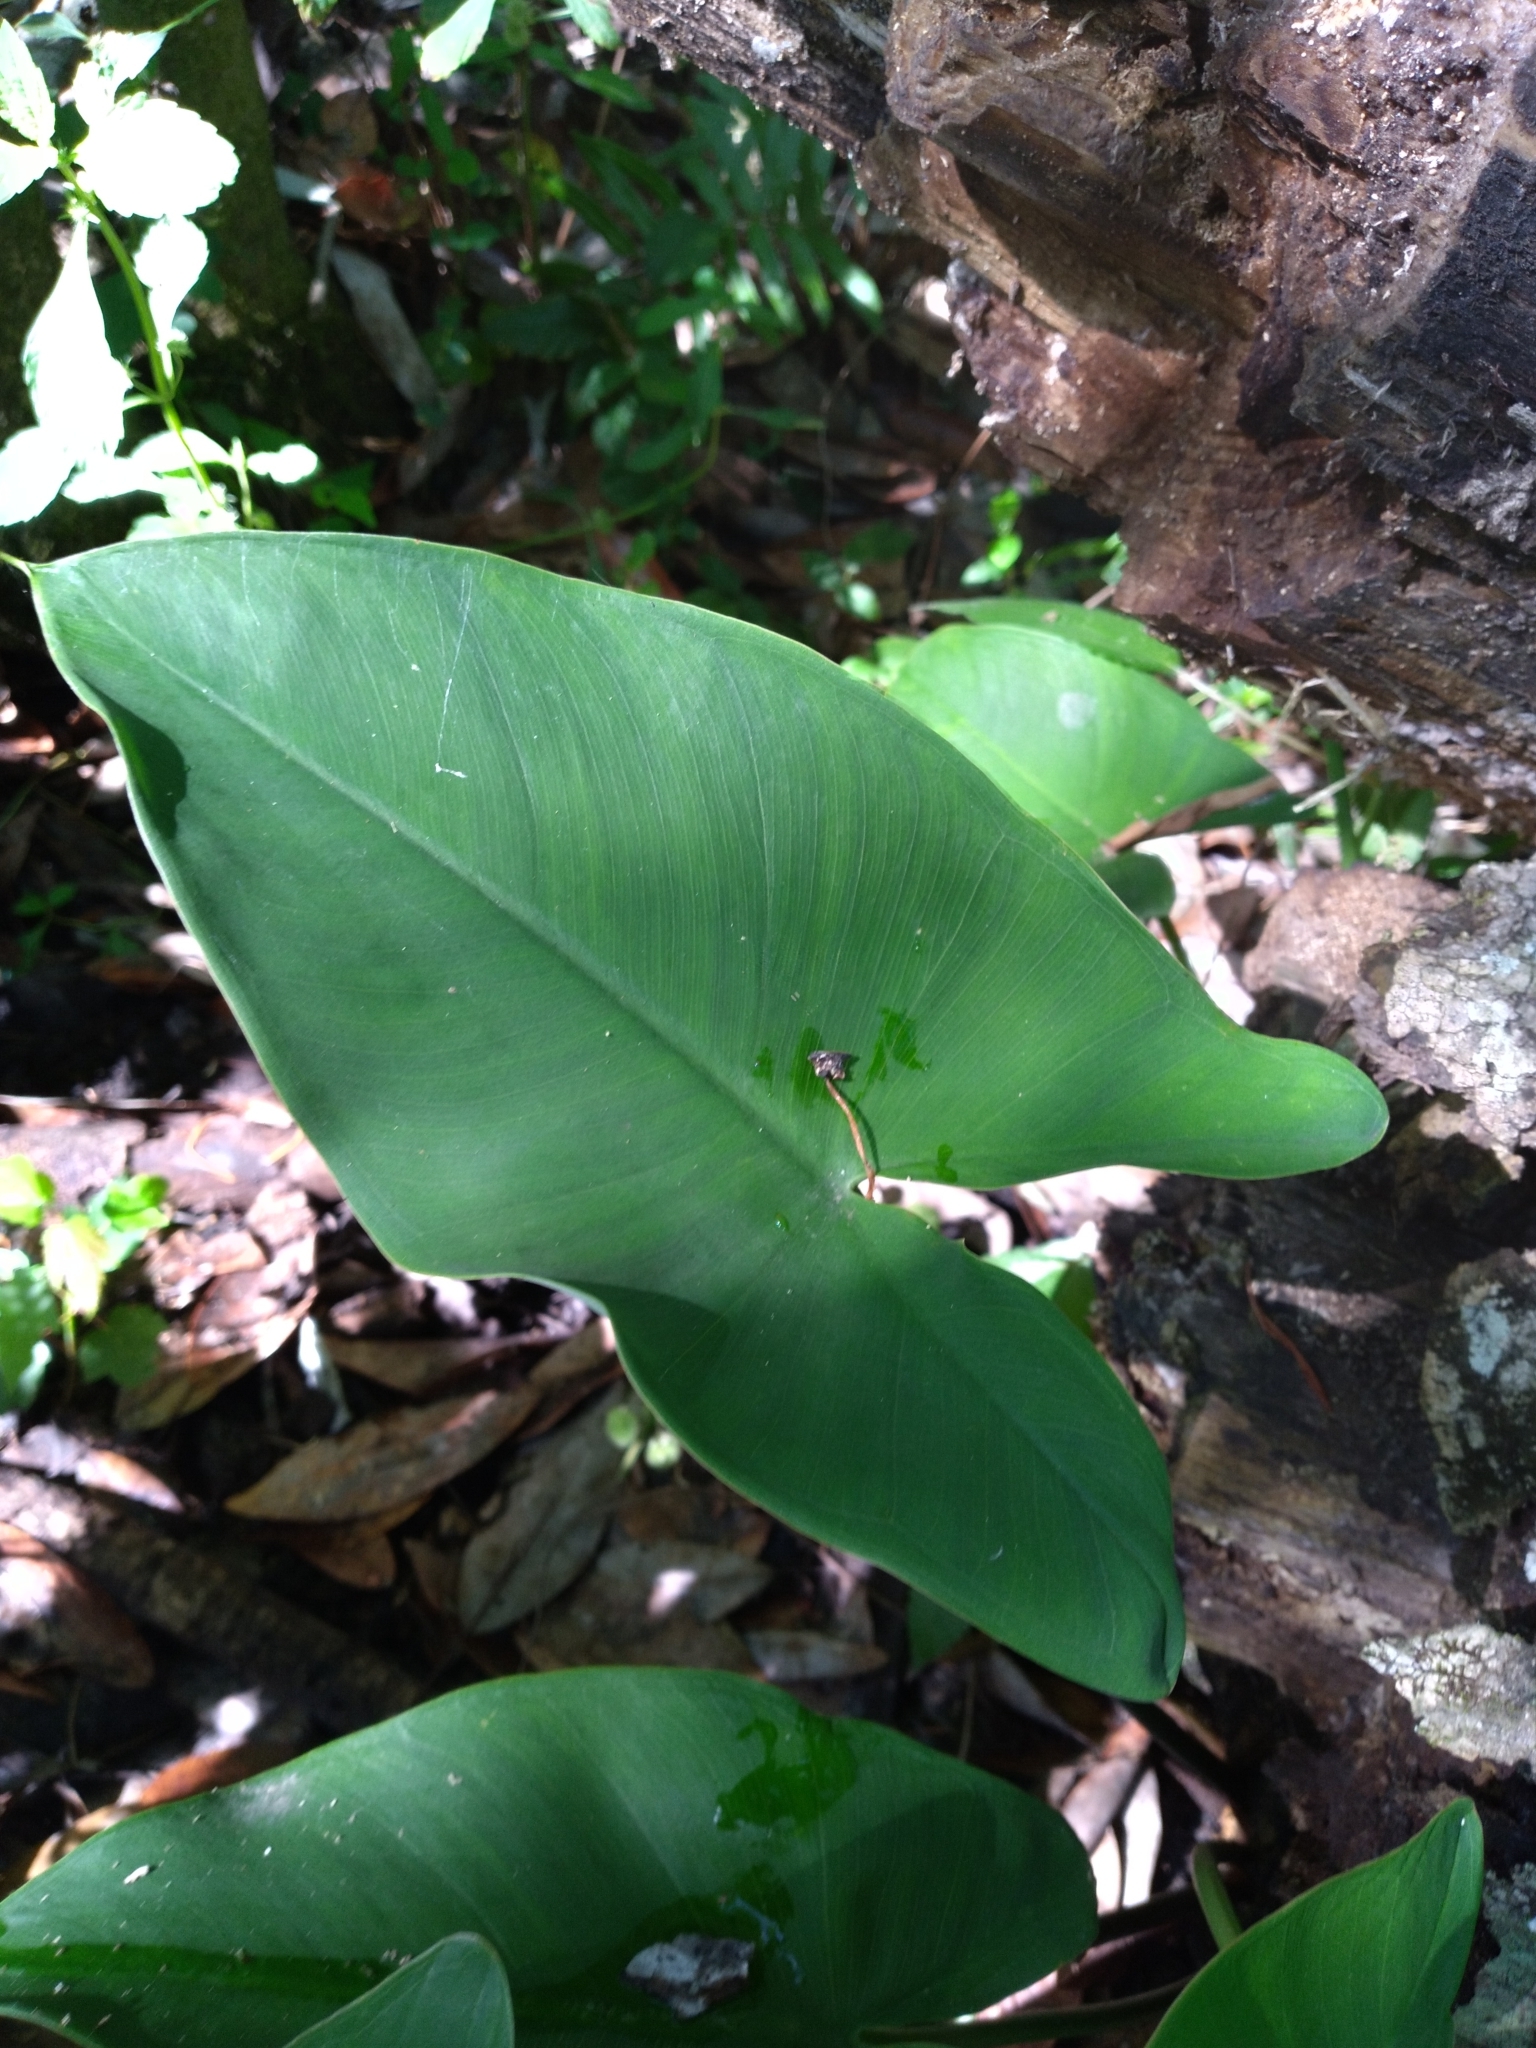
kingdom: Plantae
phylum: Tracheophyta
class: Liliopsida
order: Alismatales
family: Araceae
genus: Peltandra
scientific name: Peltandra virginica
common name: Arrow arum
